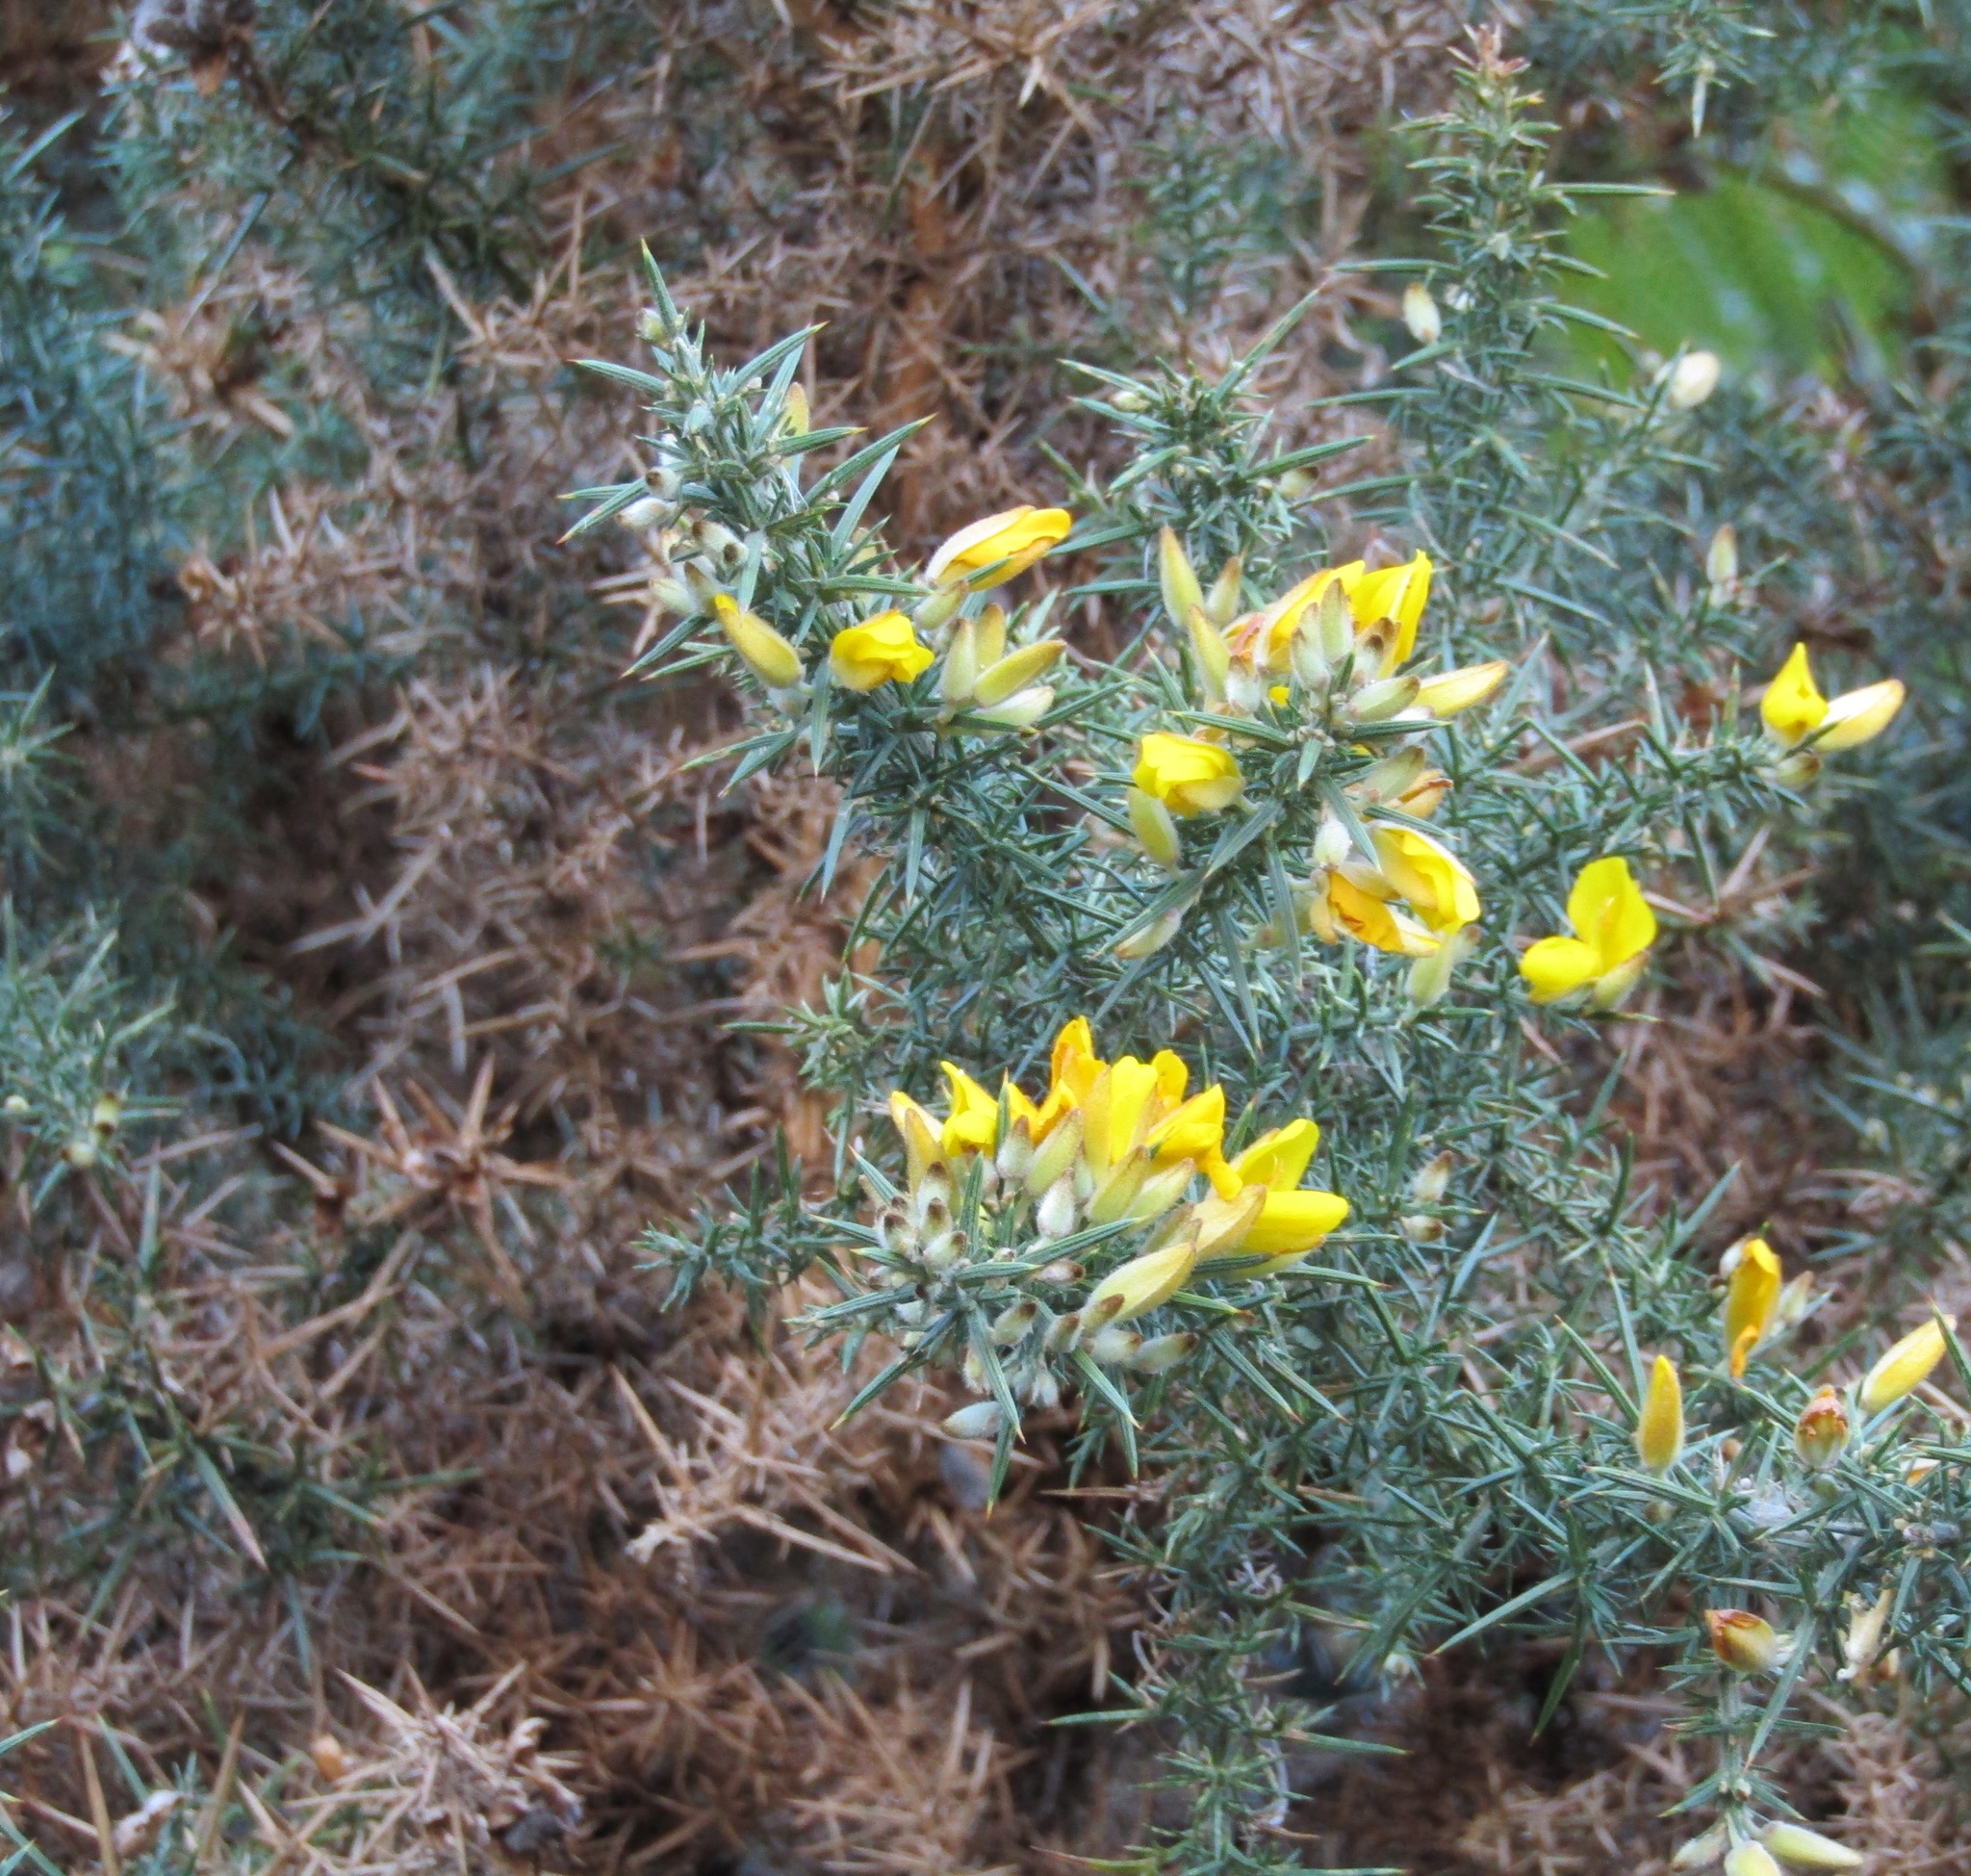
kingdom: Plantae
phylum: Tracheophyta
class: Magnoliopsida
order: Fabales
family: Fabaceae
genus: Ulex
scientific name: Ulex europaeus
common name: Common gorse
